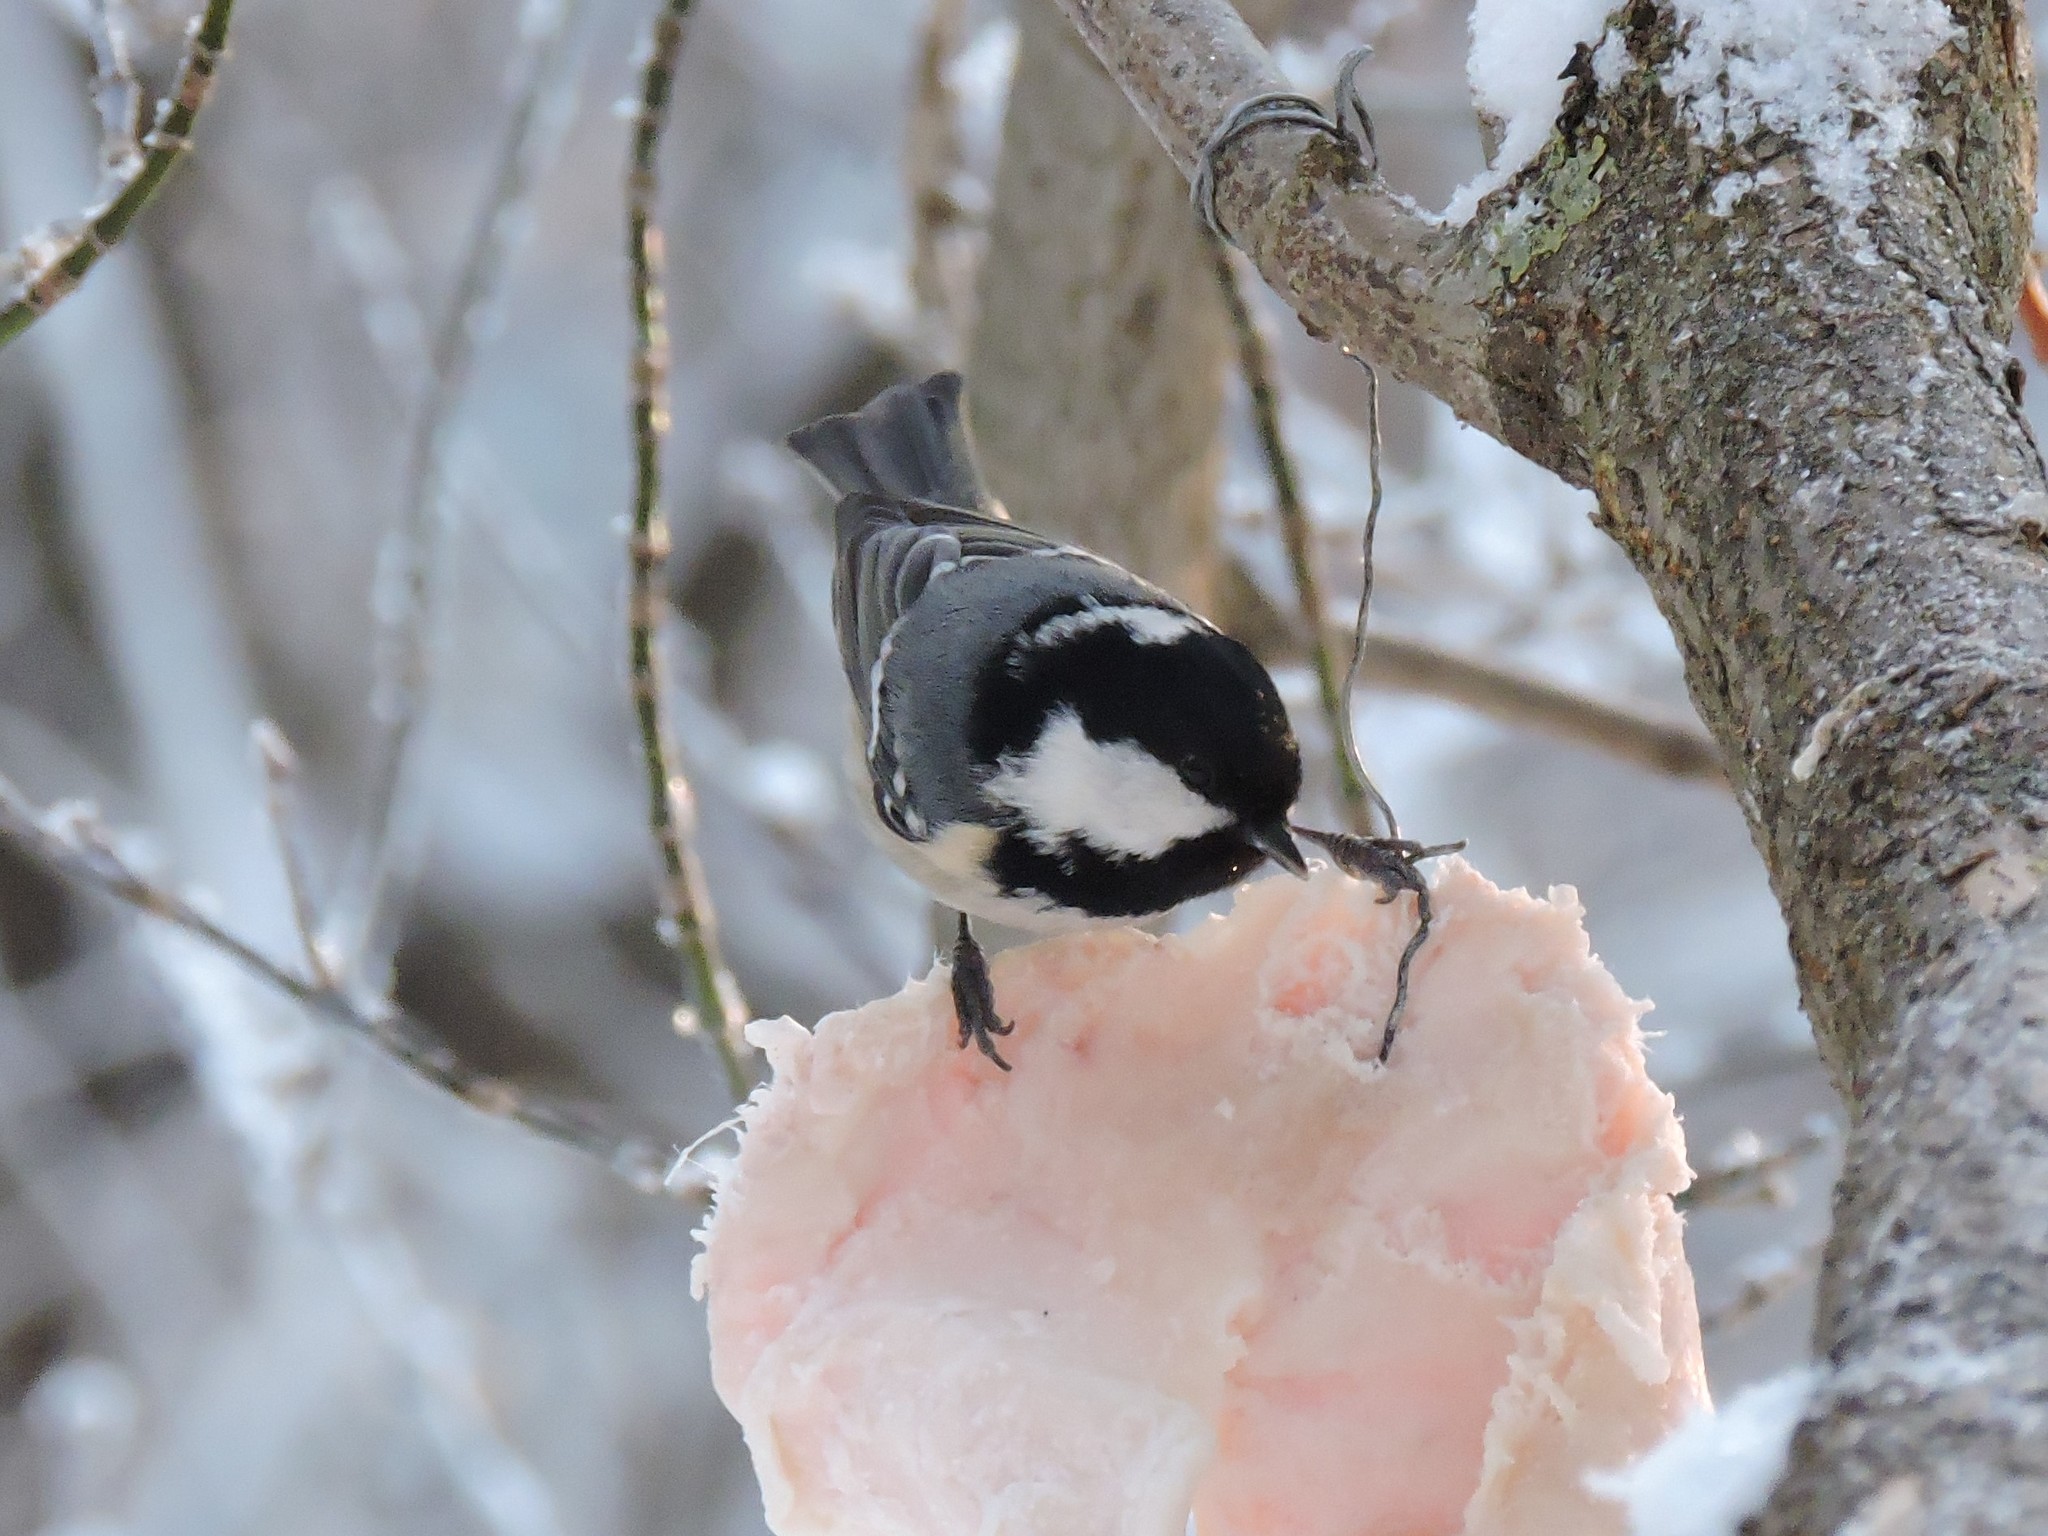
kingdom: Animalia
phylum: Chordata
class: Aves
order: Passeriformes
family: Paridae
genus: Periparus
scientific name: Periparus ater
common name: Coal tit
